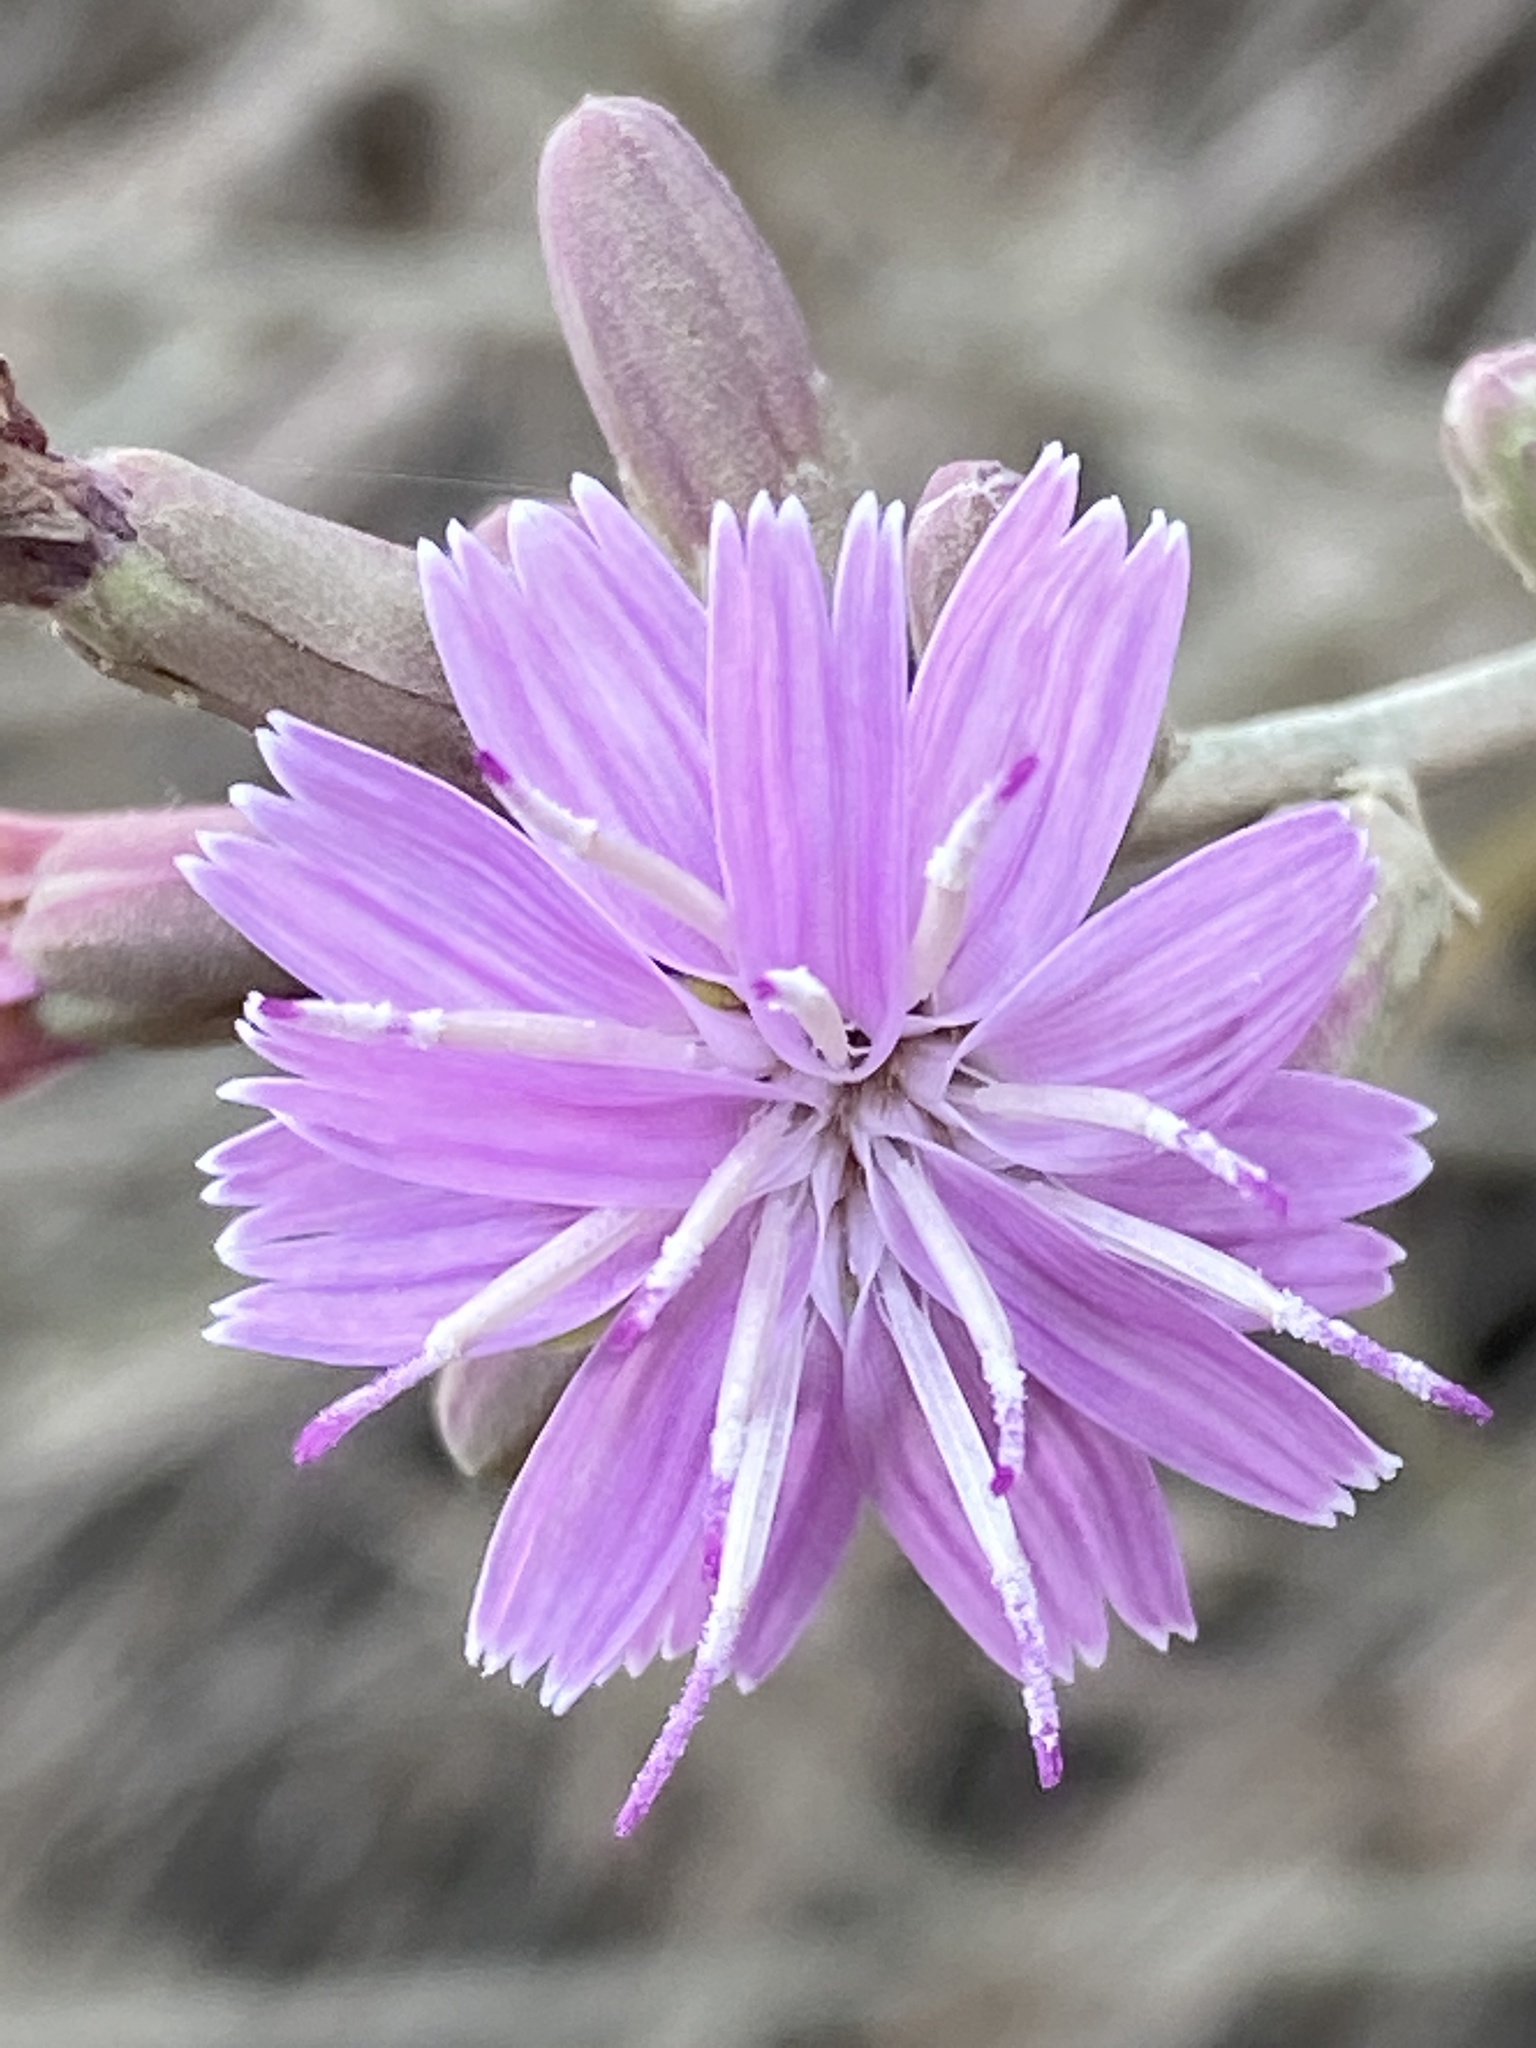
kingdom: Plantae
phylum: Tracheophyta
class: Magnoliopsida
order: Asterales
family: Asteraceae
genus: Stephanomeria
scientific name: Stephanomeria cichoriacea
